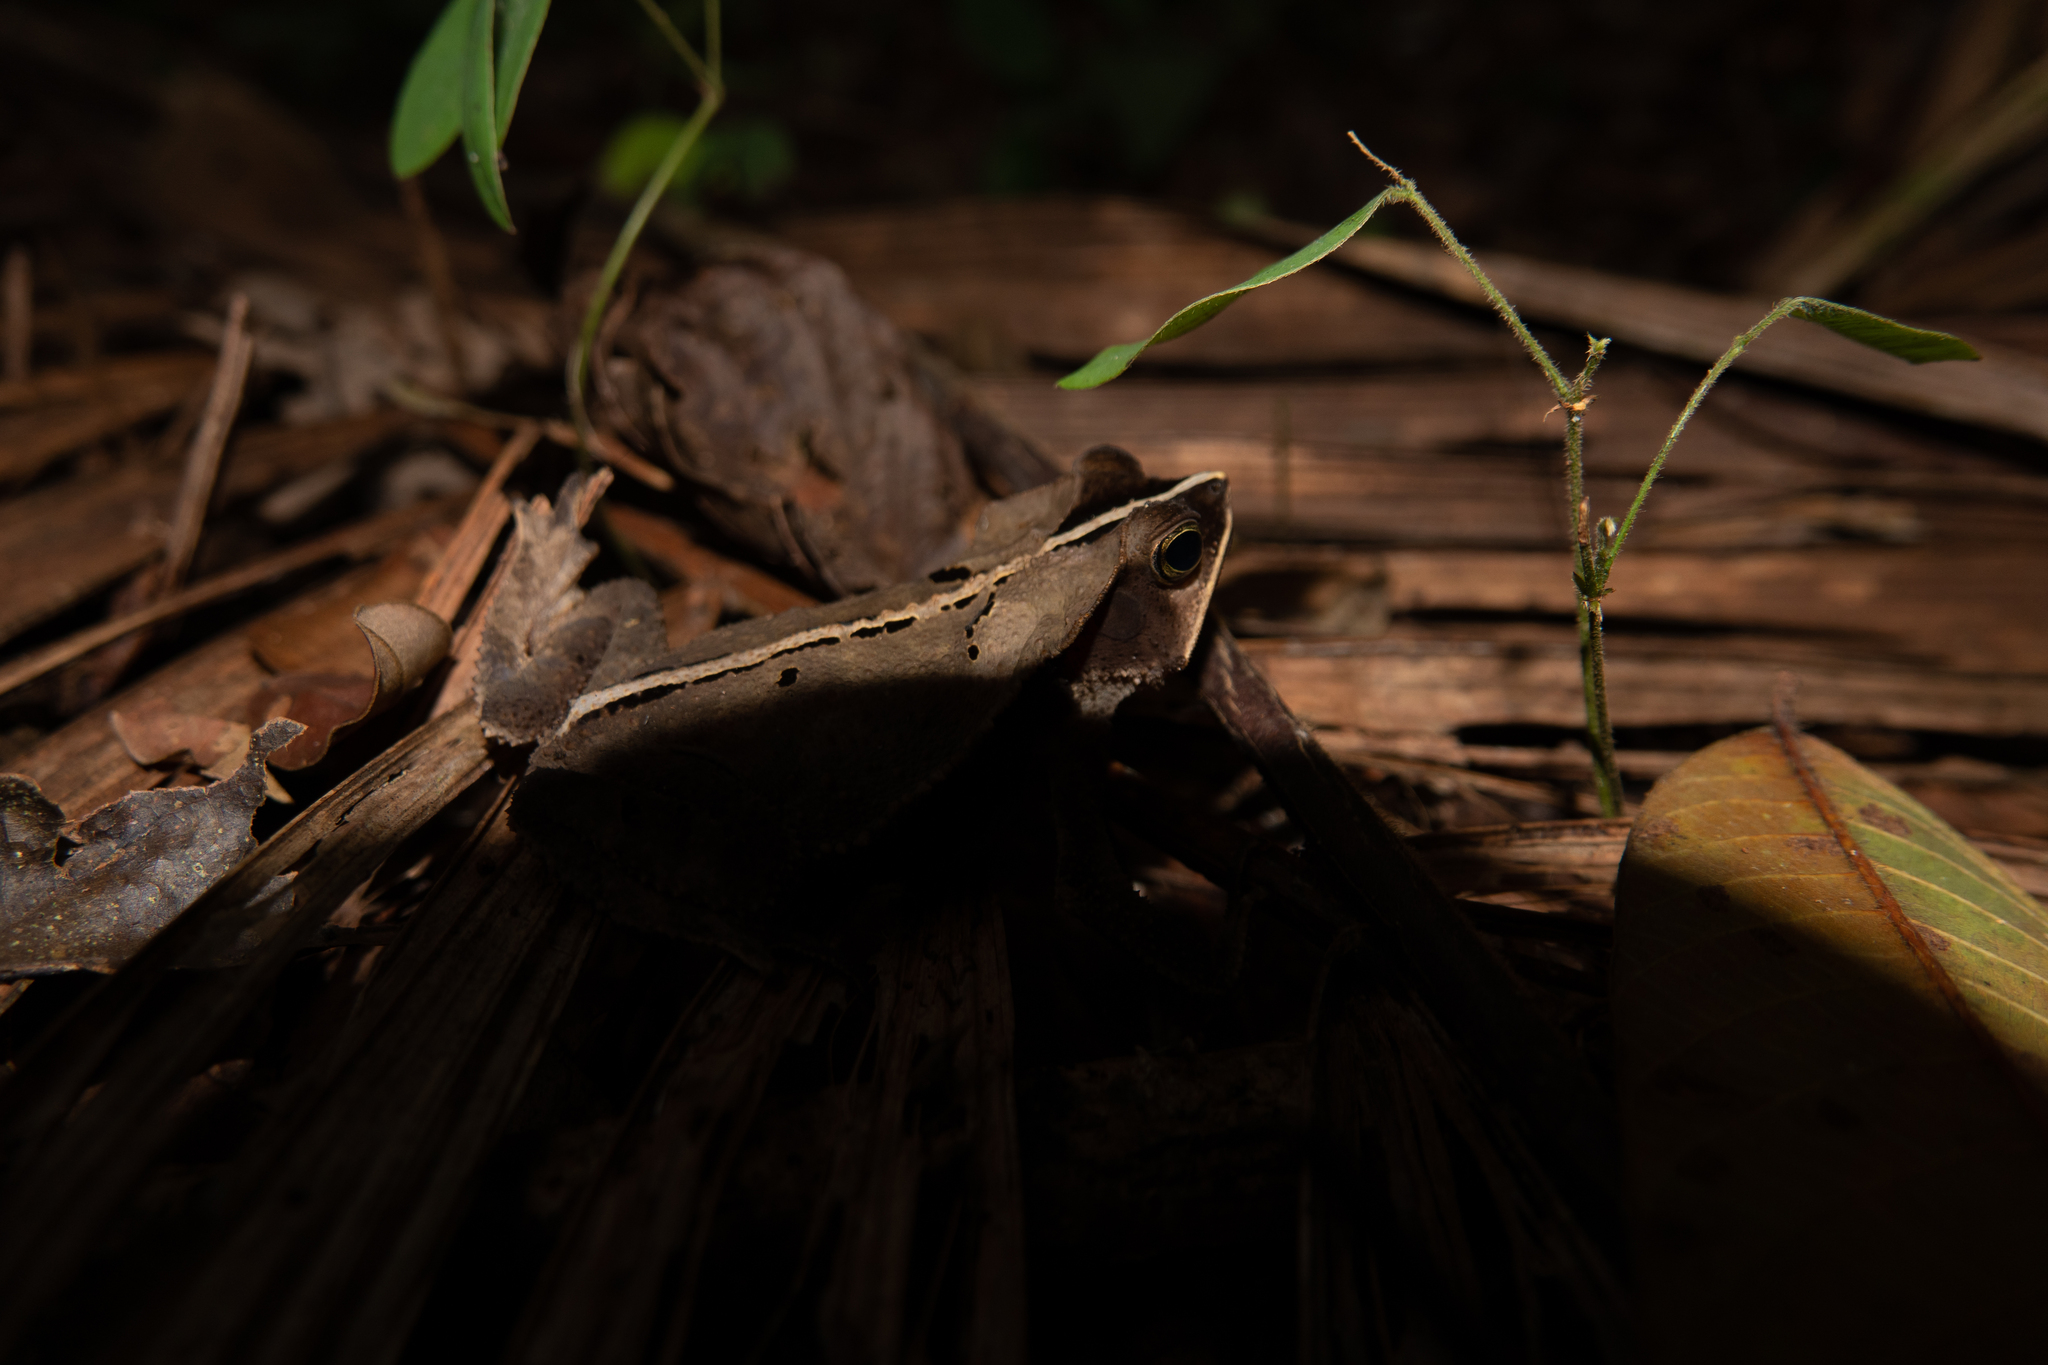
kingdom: Animalia
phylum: Chordata
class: Amphibia
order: Anura
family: Bufonidae
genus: Rhinella
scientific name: Rhinella margaritifera
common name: Mitred toad
